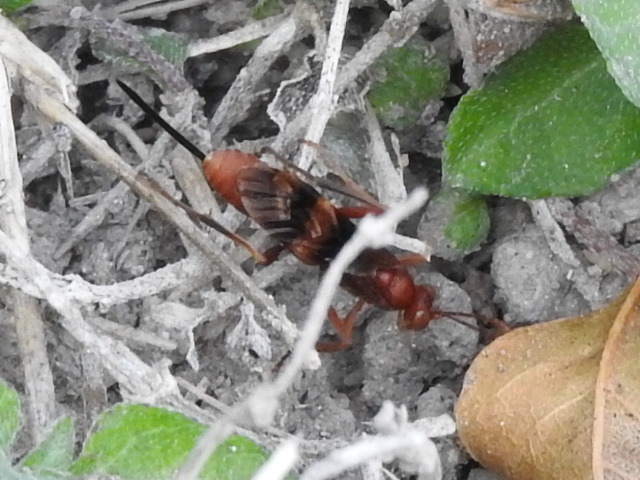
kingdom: Animalia
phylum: Arthropoda
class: Insecta
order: Hymenoptera
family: Ichneumonidae
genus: Compsocryptus
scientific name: Compsocryptus texensis
